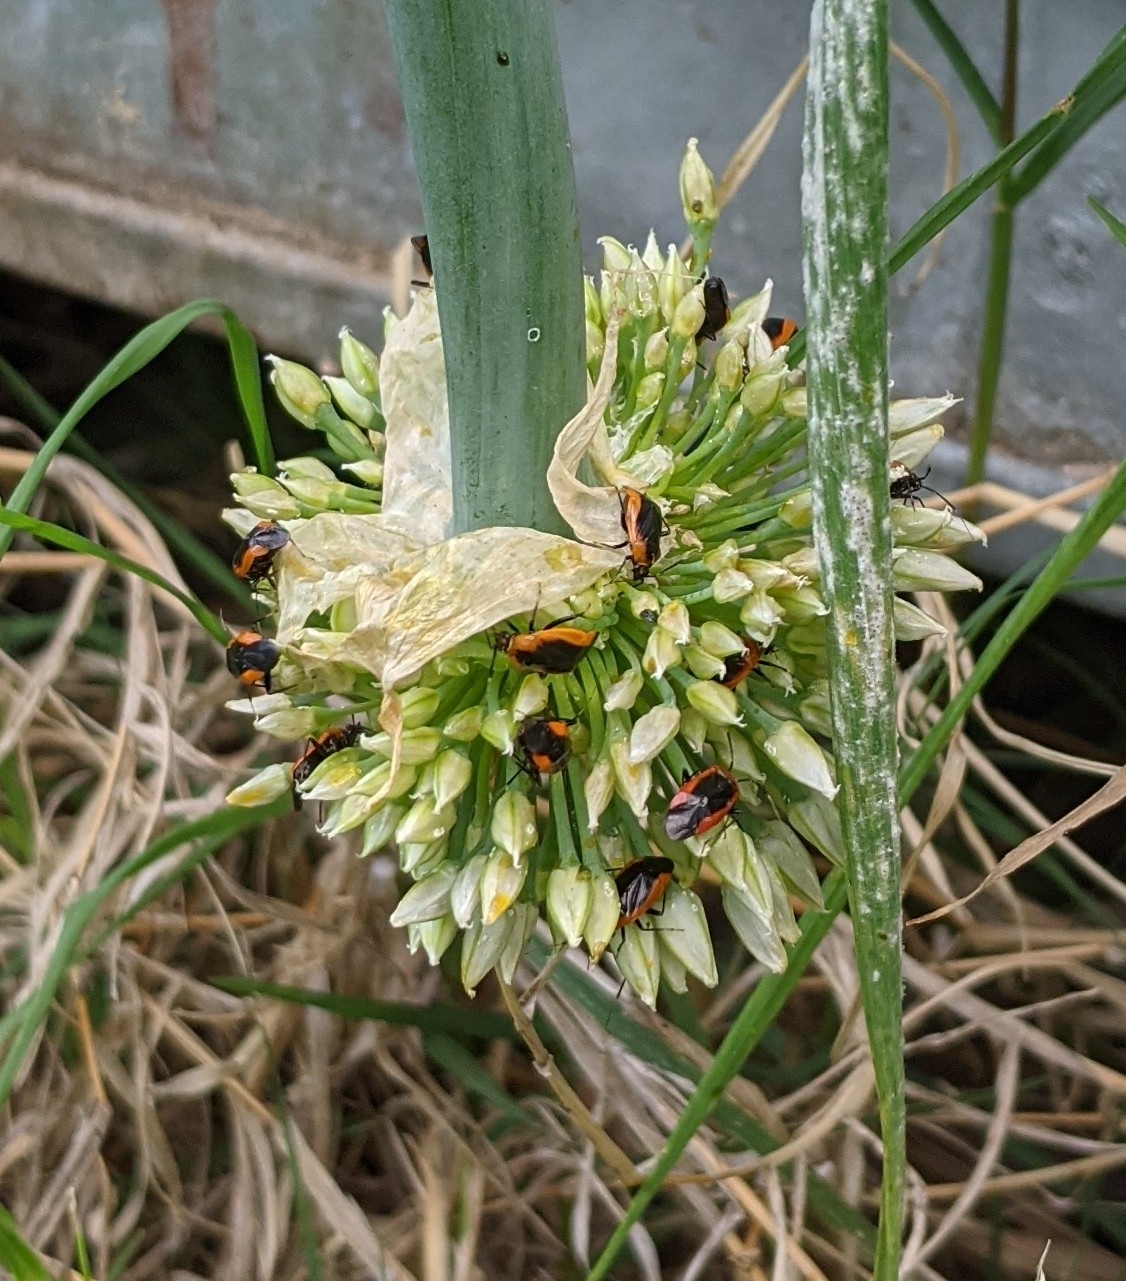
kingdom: Animalia
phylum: Arthropoda
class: Insecta
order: Hemiptera
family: Miridae
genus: Metriorrhynchomiris
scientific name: Metriorrhynchomiris dislocatus
